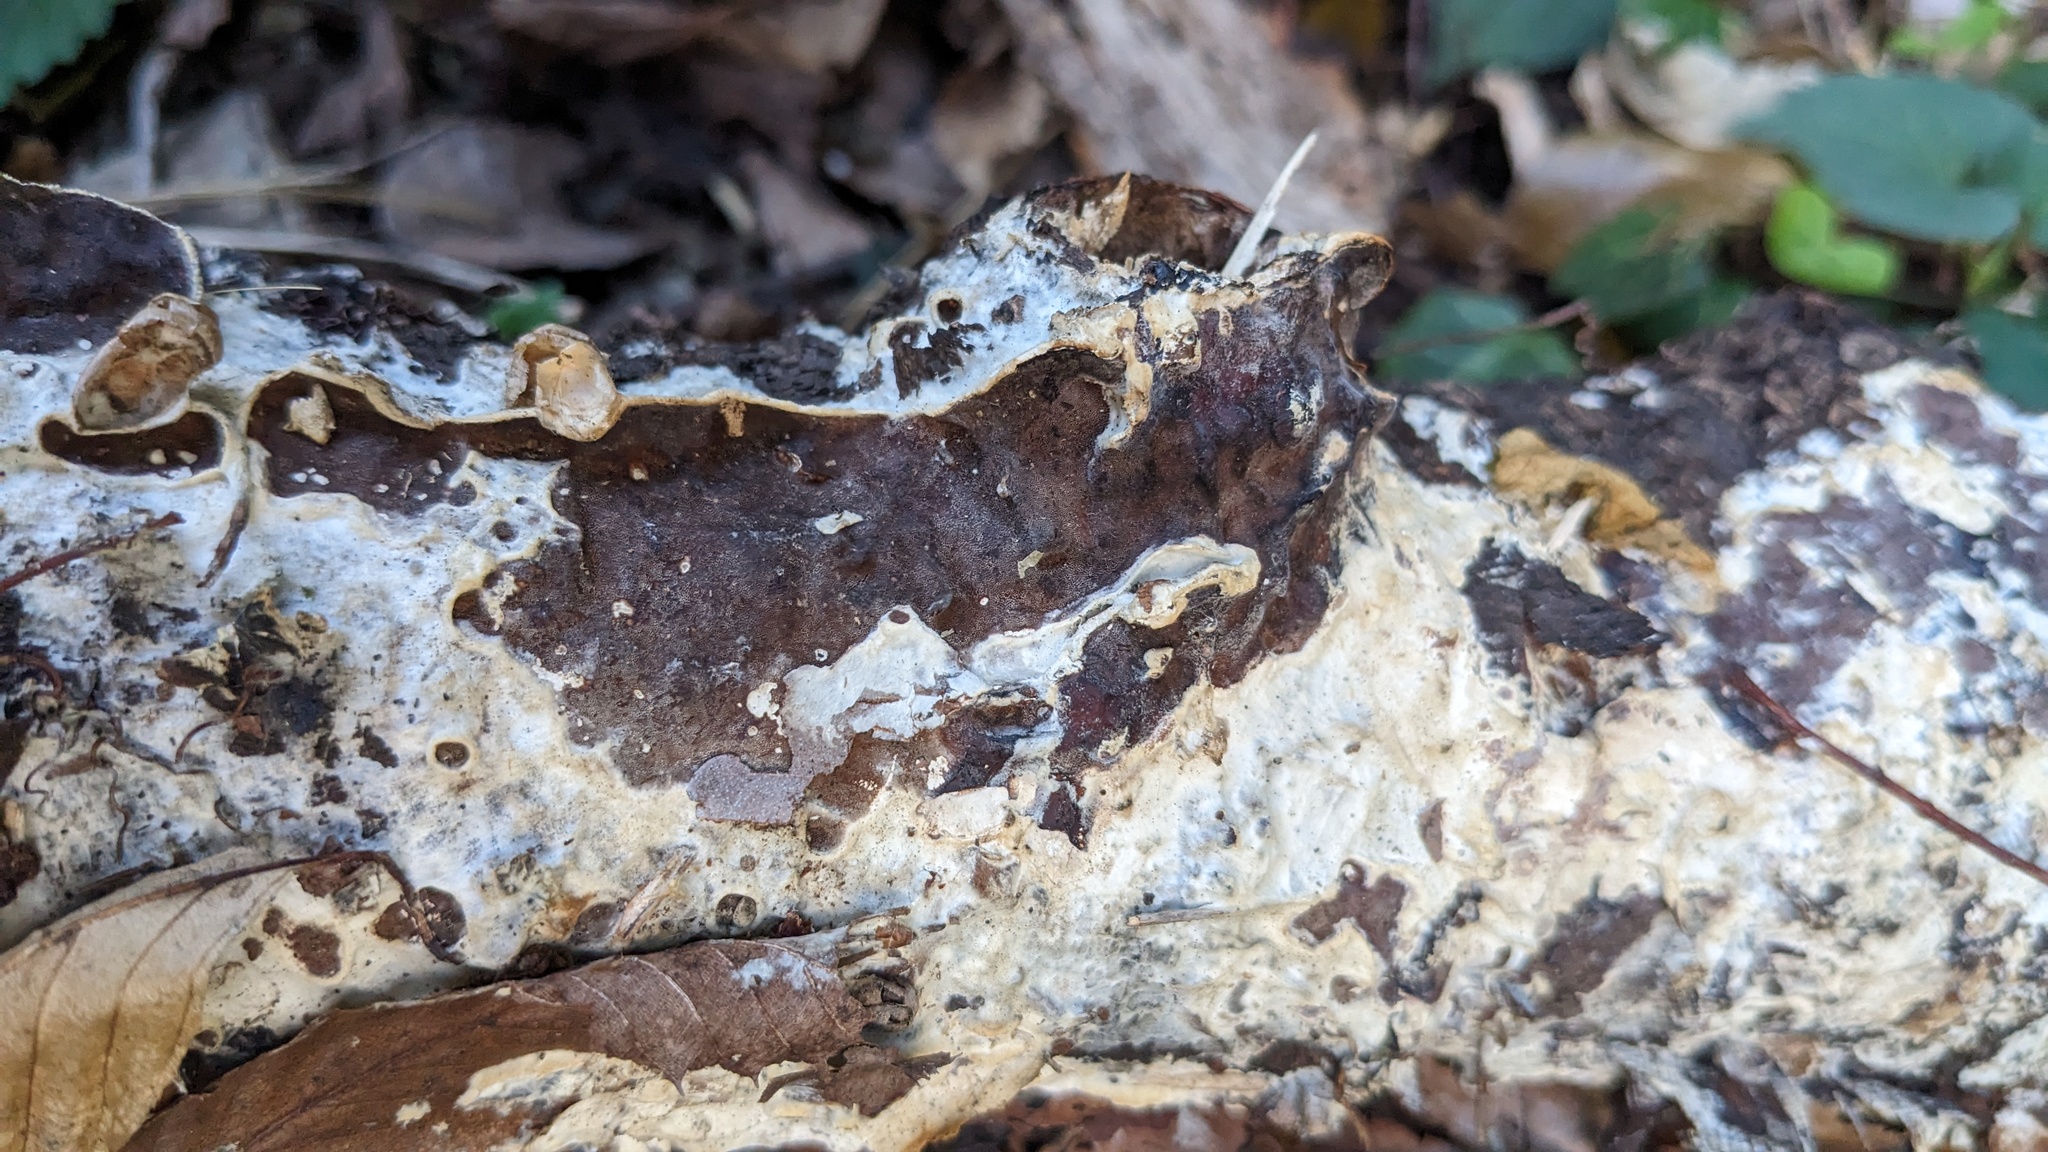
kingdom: Fungi
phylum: Basidiomycota
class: Agaricomycetes
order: Polyporales
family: Irpicaceae
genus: Vitreoporus
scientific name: Vitreoporus dichrous
